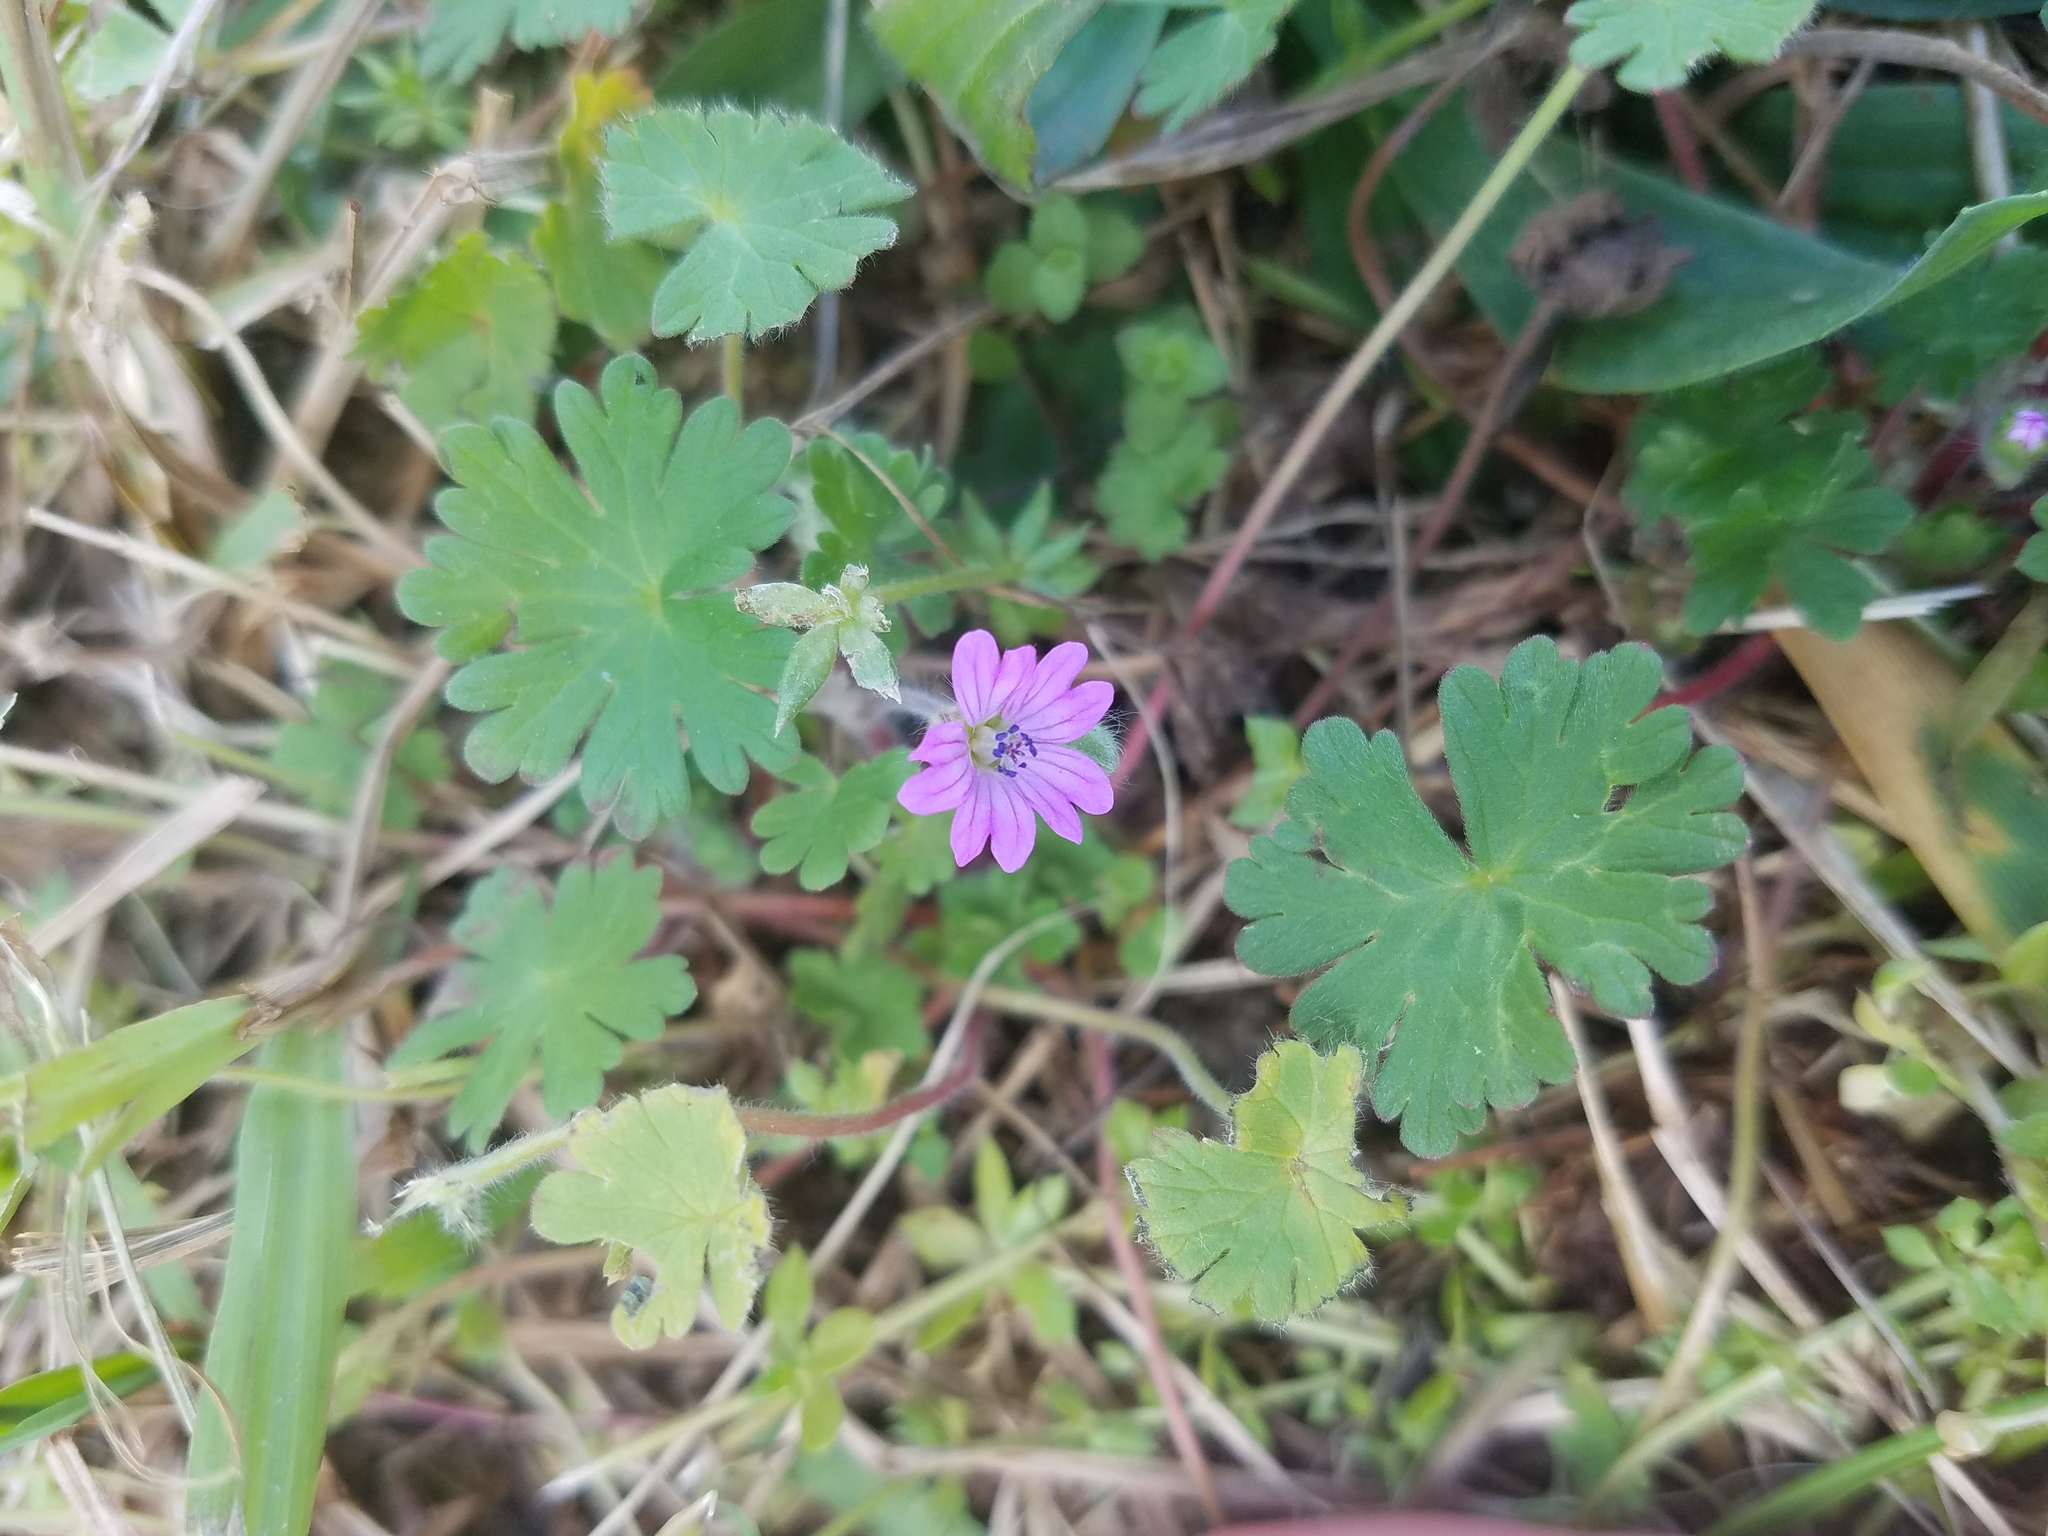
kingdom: Plantae
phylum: Tracheophyta
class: Magnoliopsida
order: Geraniales
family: Geraniaceae
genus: Geranium
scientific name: Geranium molle
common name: Dove's-foot crane's-bill
